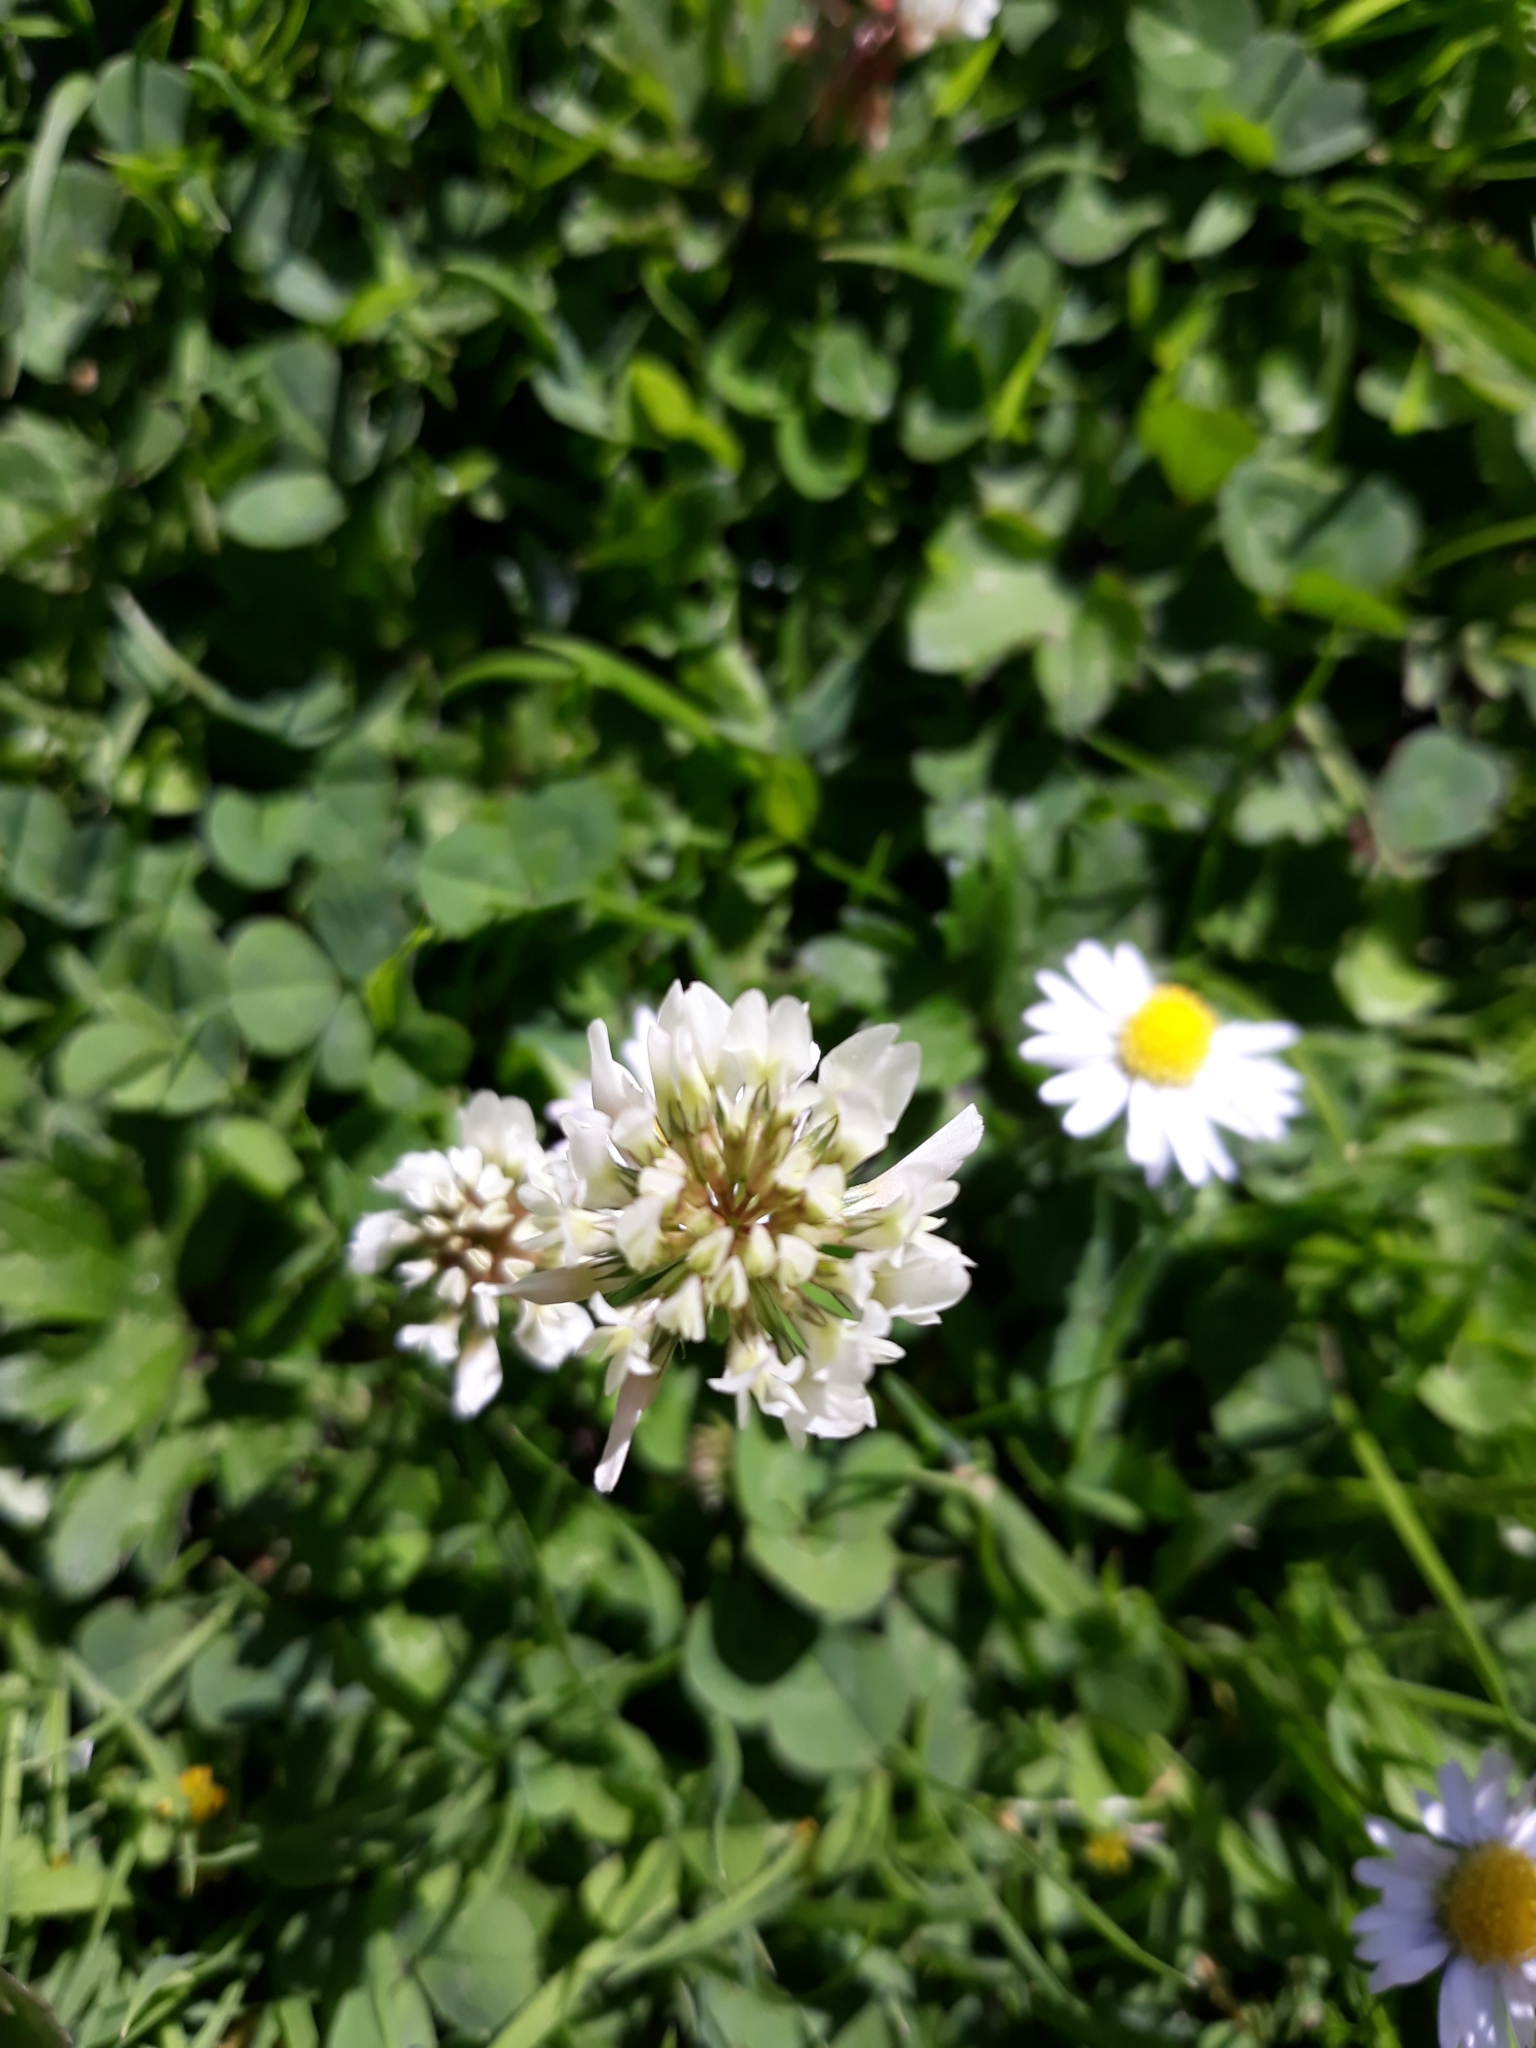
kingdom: Plantae
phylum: Tracheophyta
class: Magnoliopsida
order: Fabales
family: Fabaceae
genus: Trifolium
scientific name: Trifolium repens
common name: White clover
